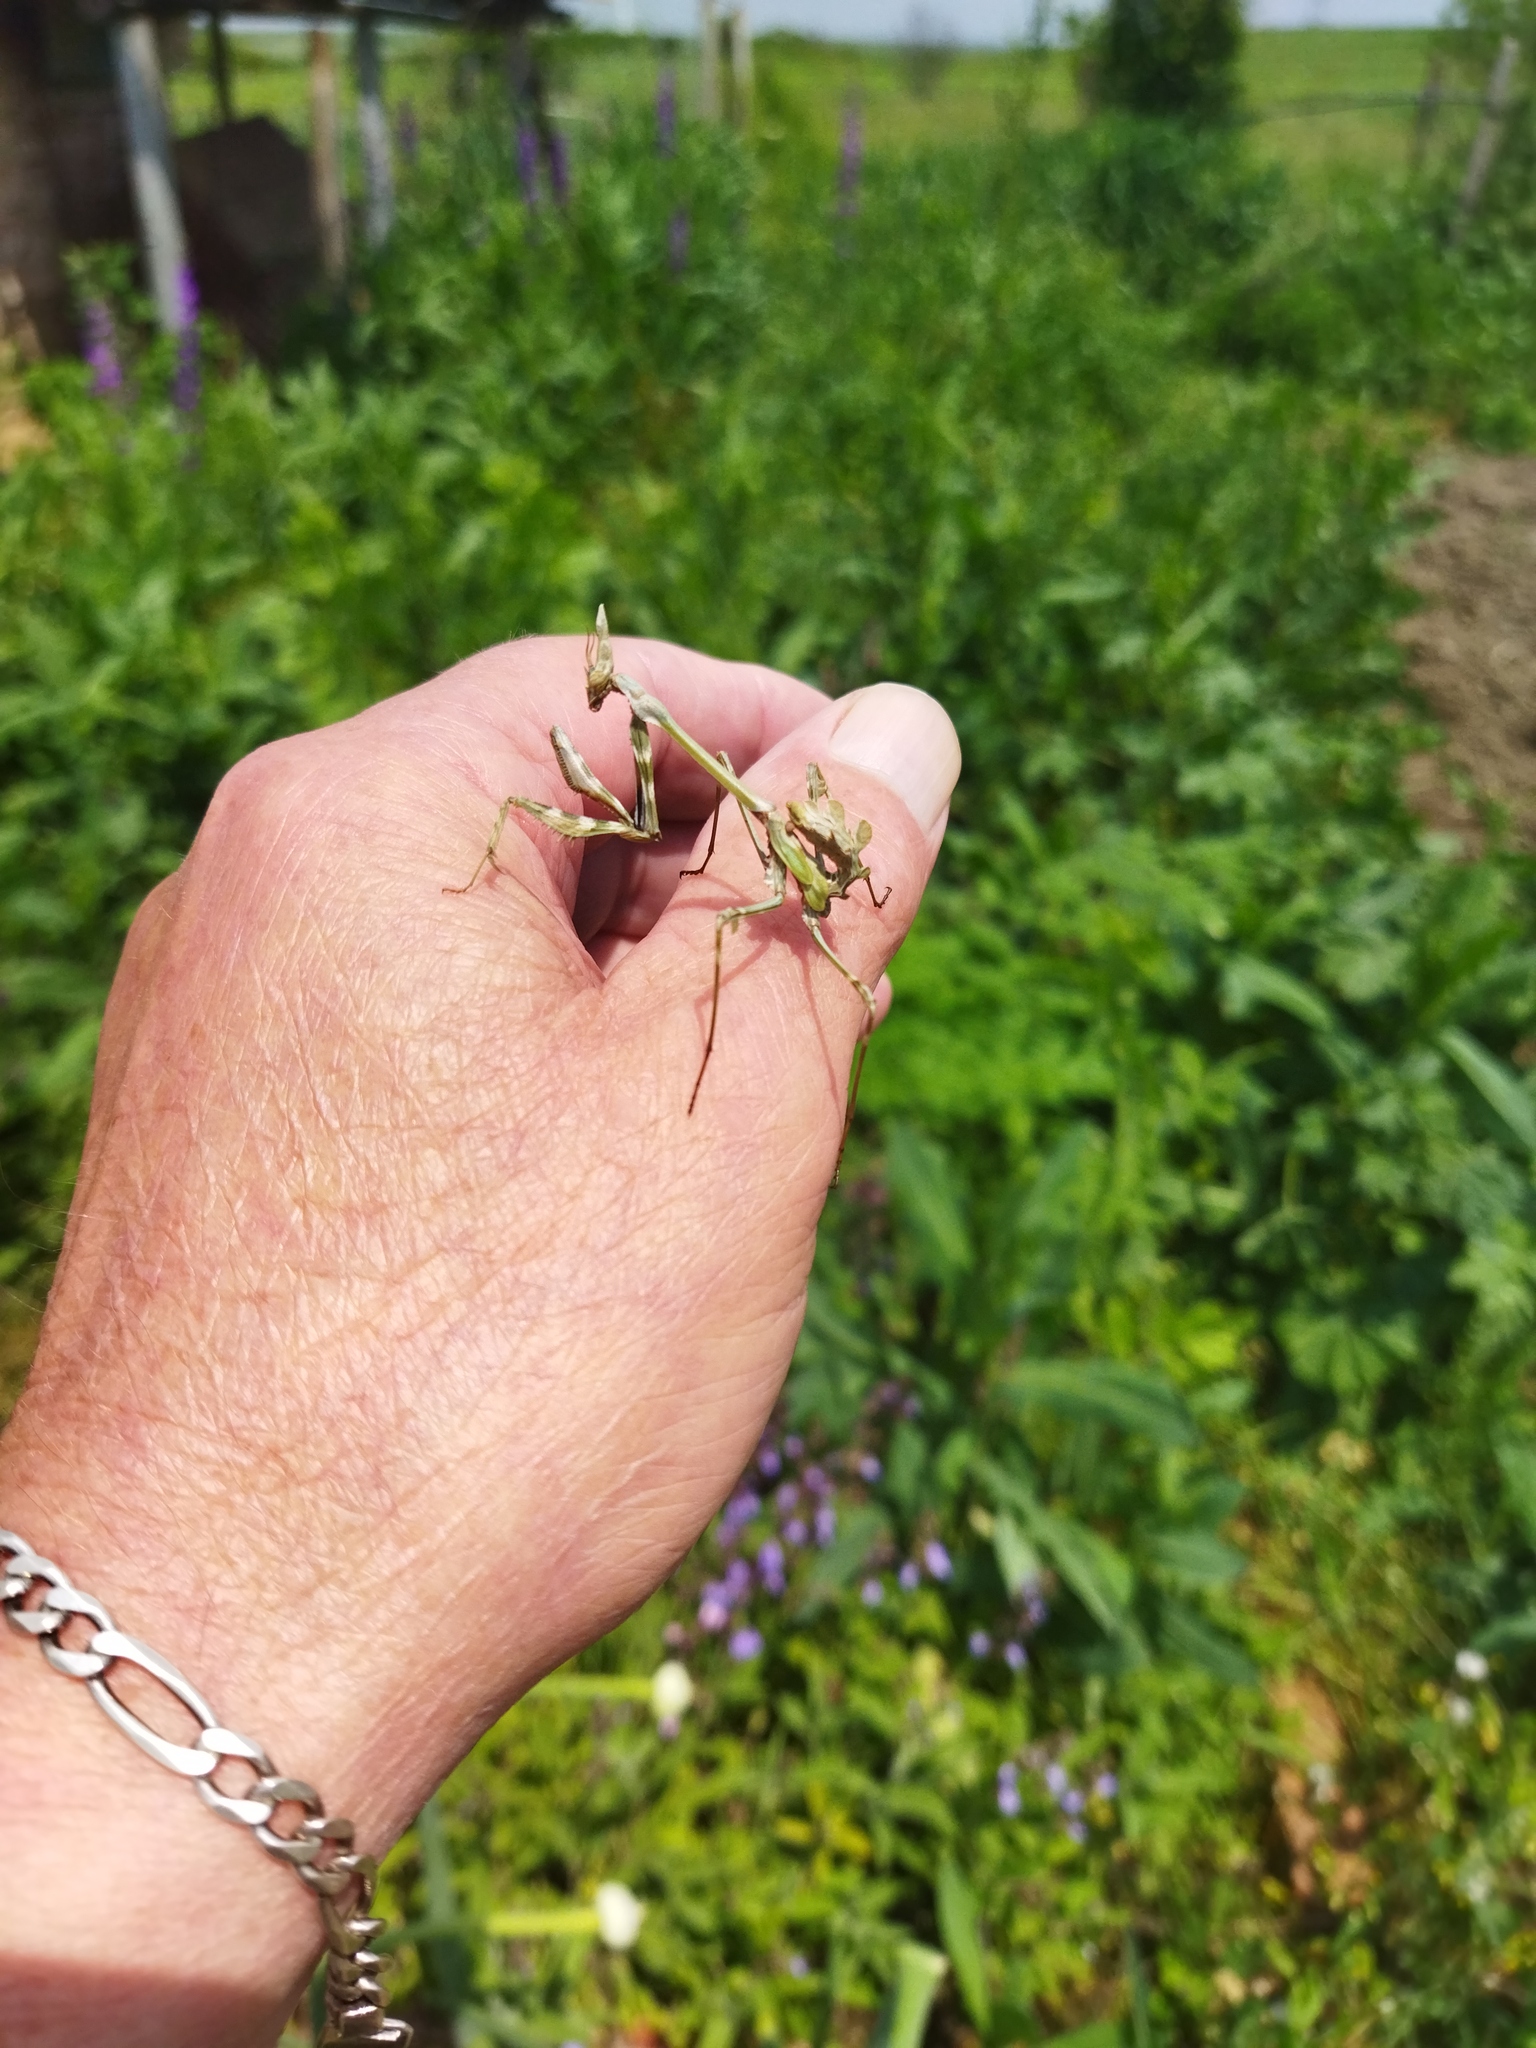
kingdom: Animalia
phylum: Arthropoda
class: Insecta
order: Mantodea
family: Empusidae
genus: Empusa
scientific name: Empusa fasciata
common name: Devil's mare
